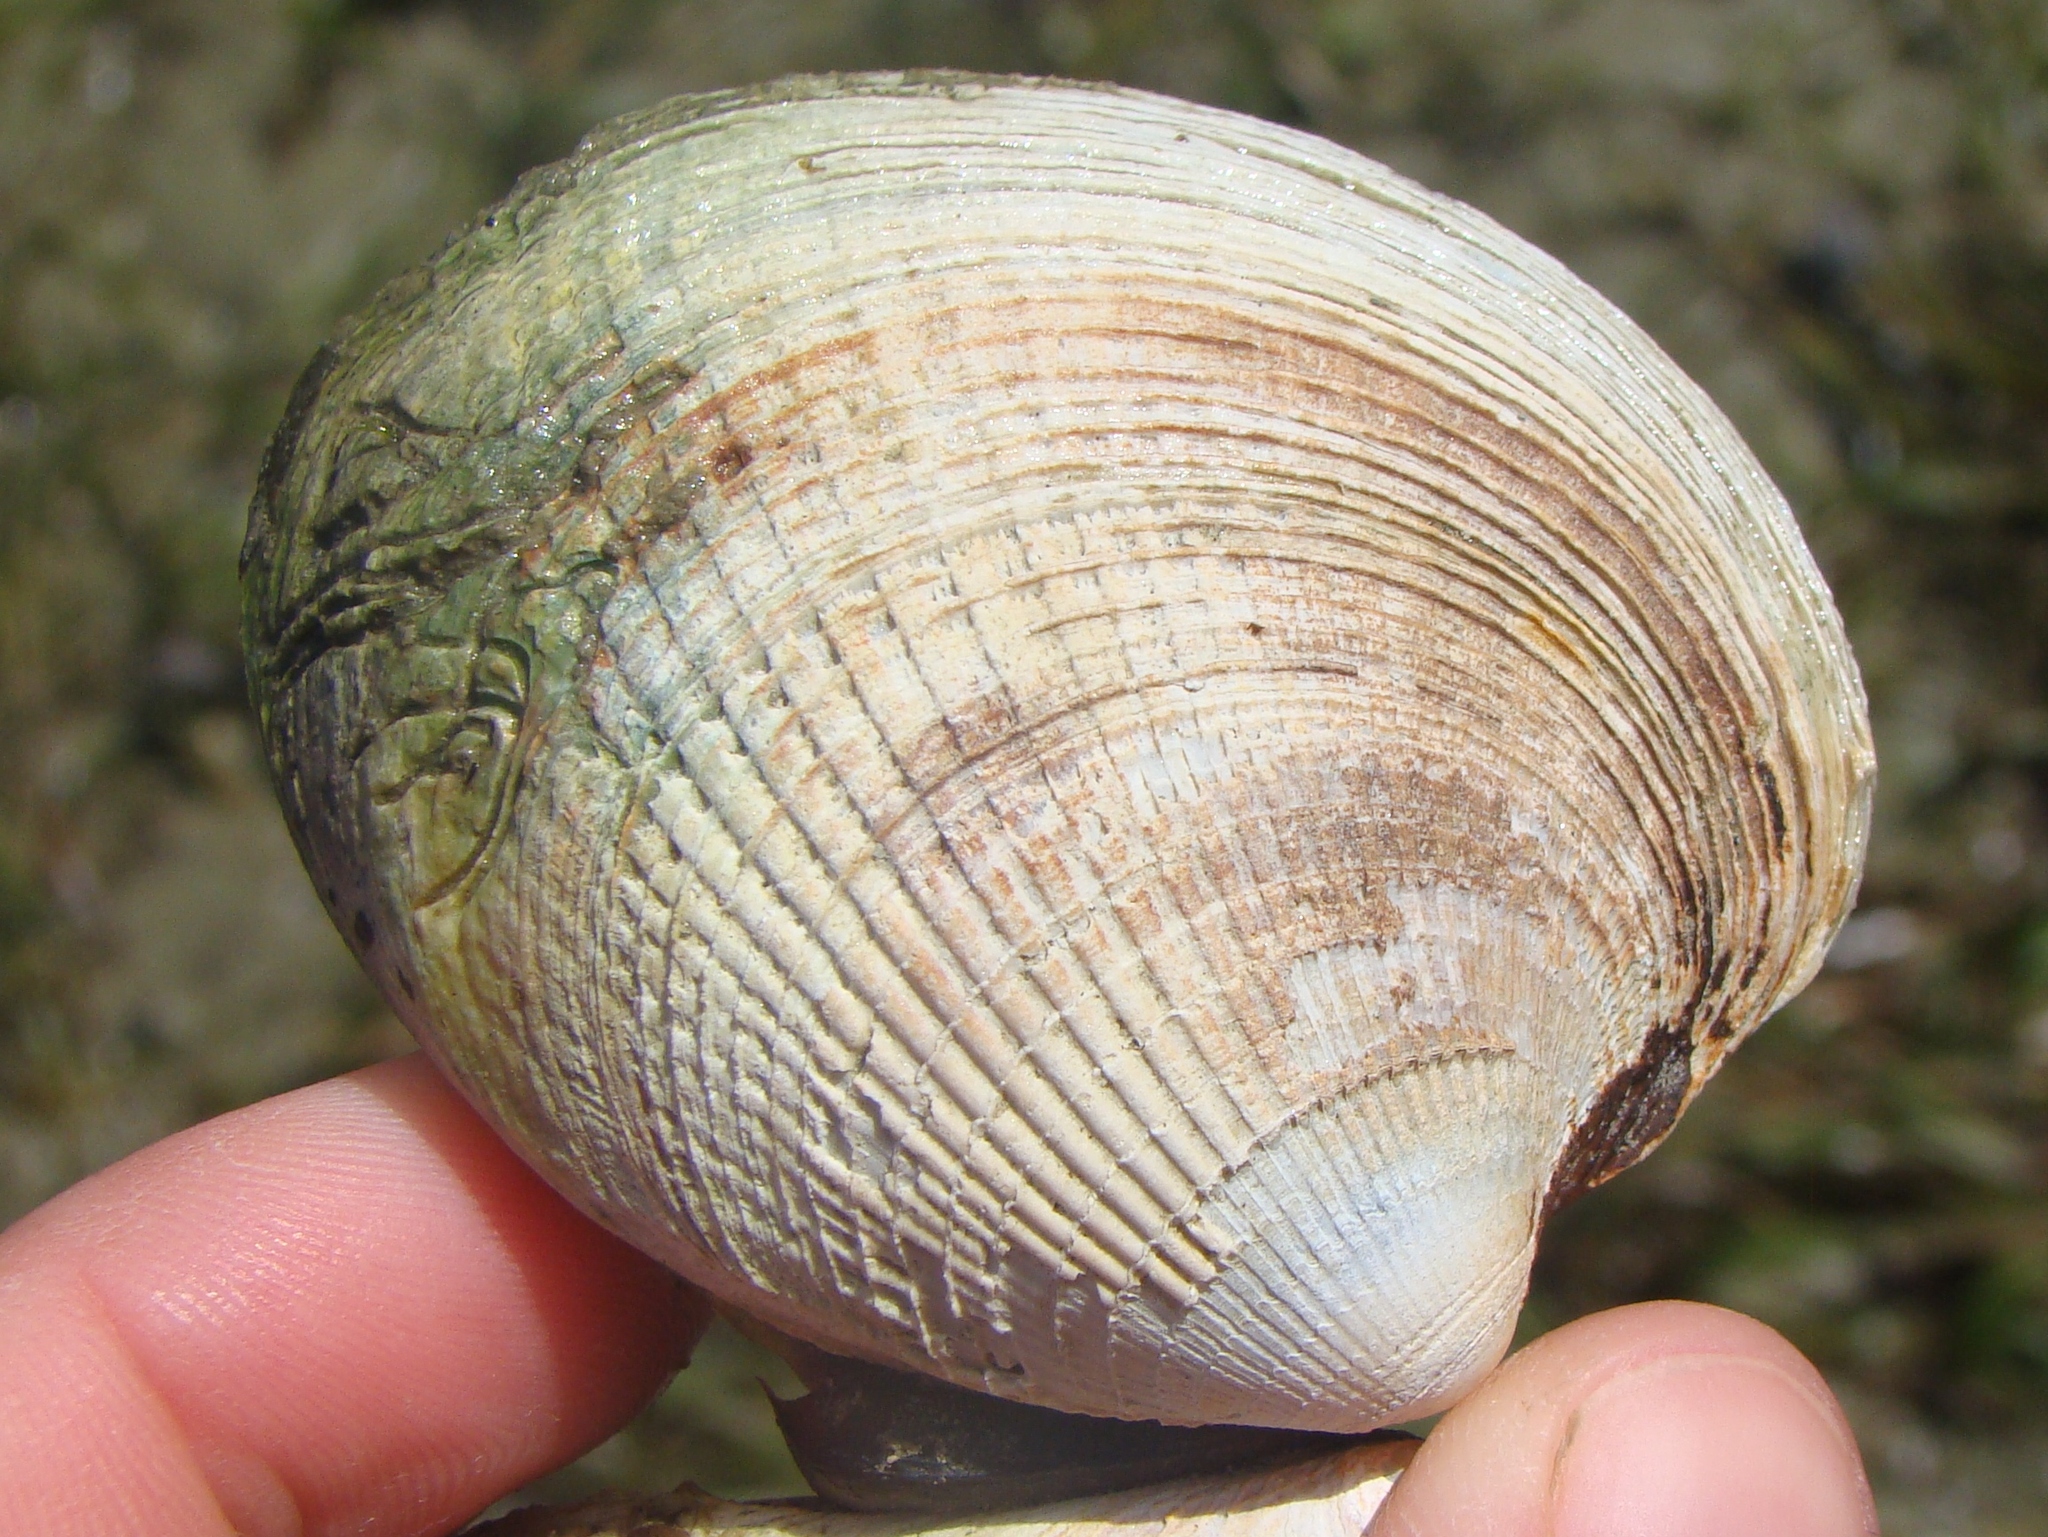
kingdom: Animalia
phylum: Mollusca
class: Bivalvia
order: Venerida
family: Veneridae
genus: Austrovenus
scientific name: Austrovenus stutchburyi
